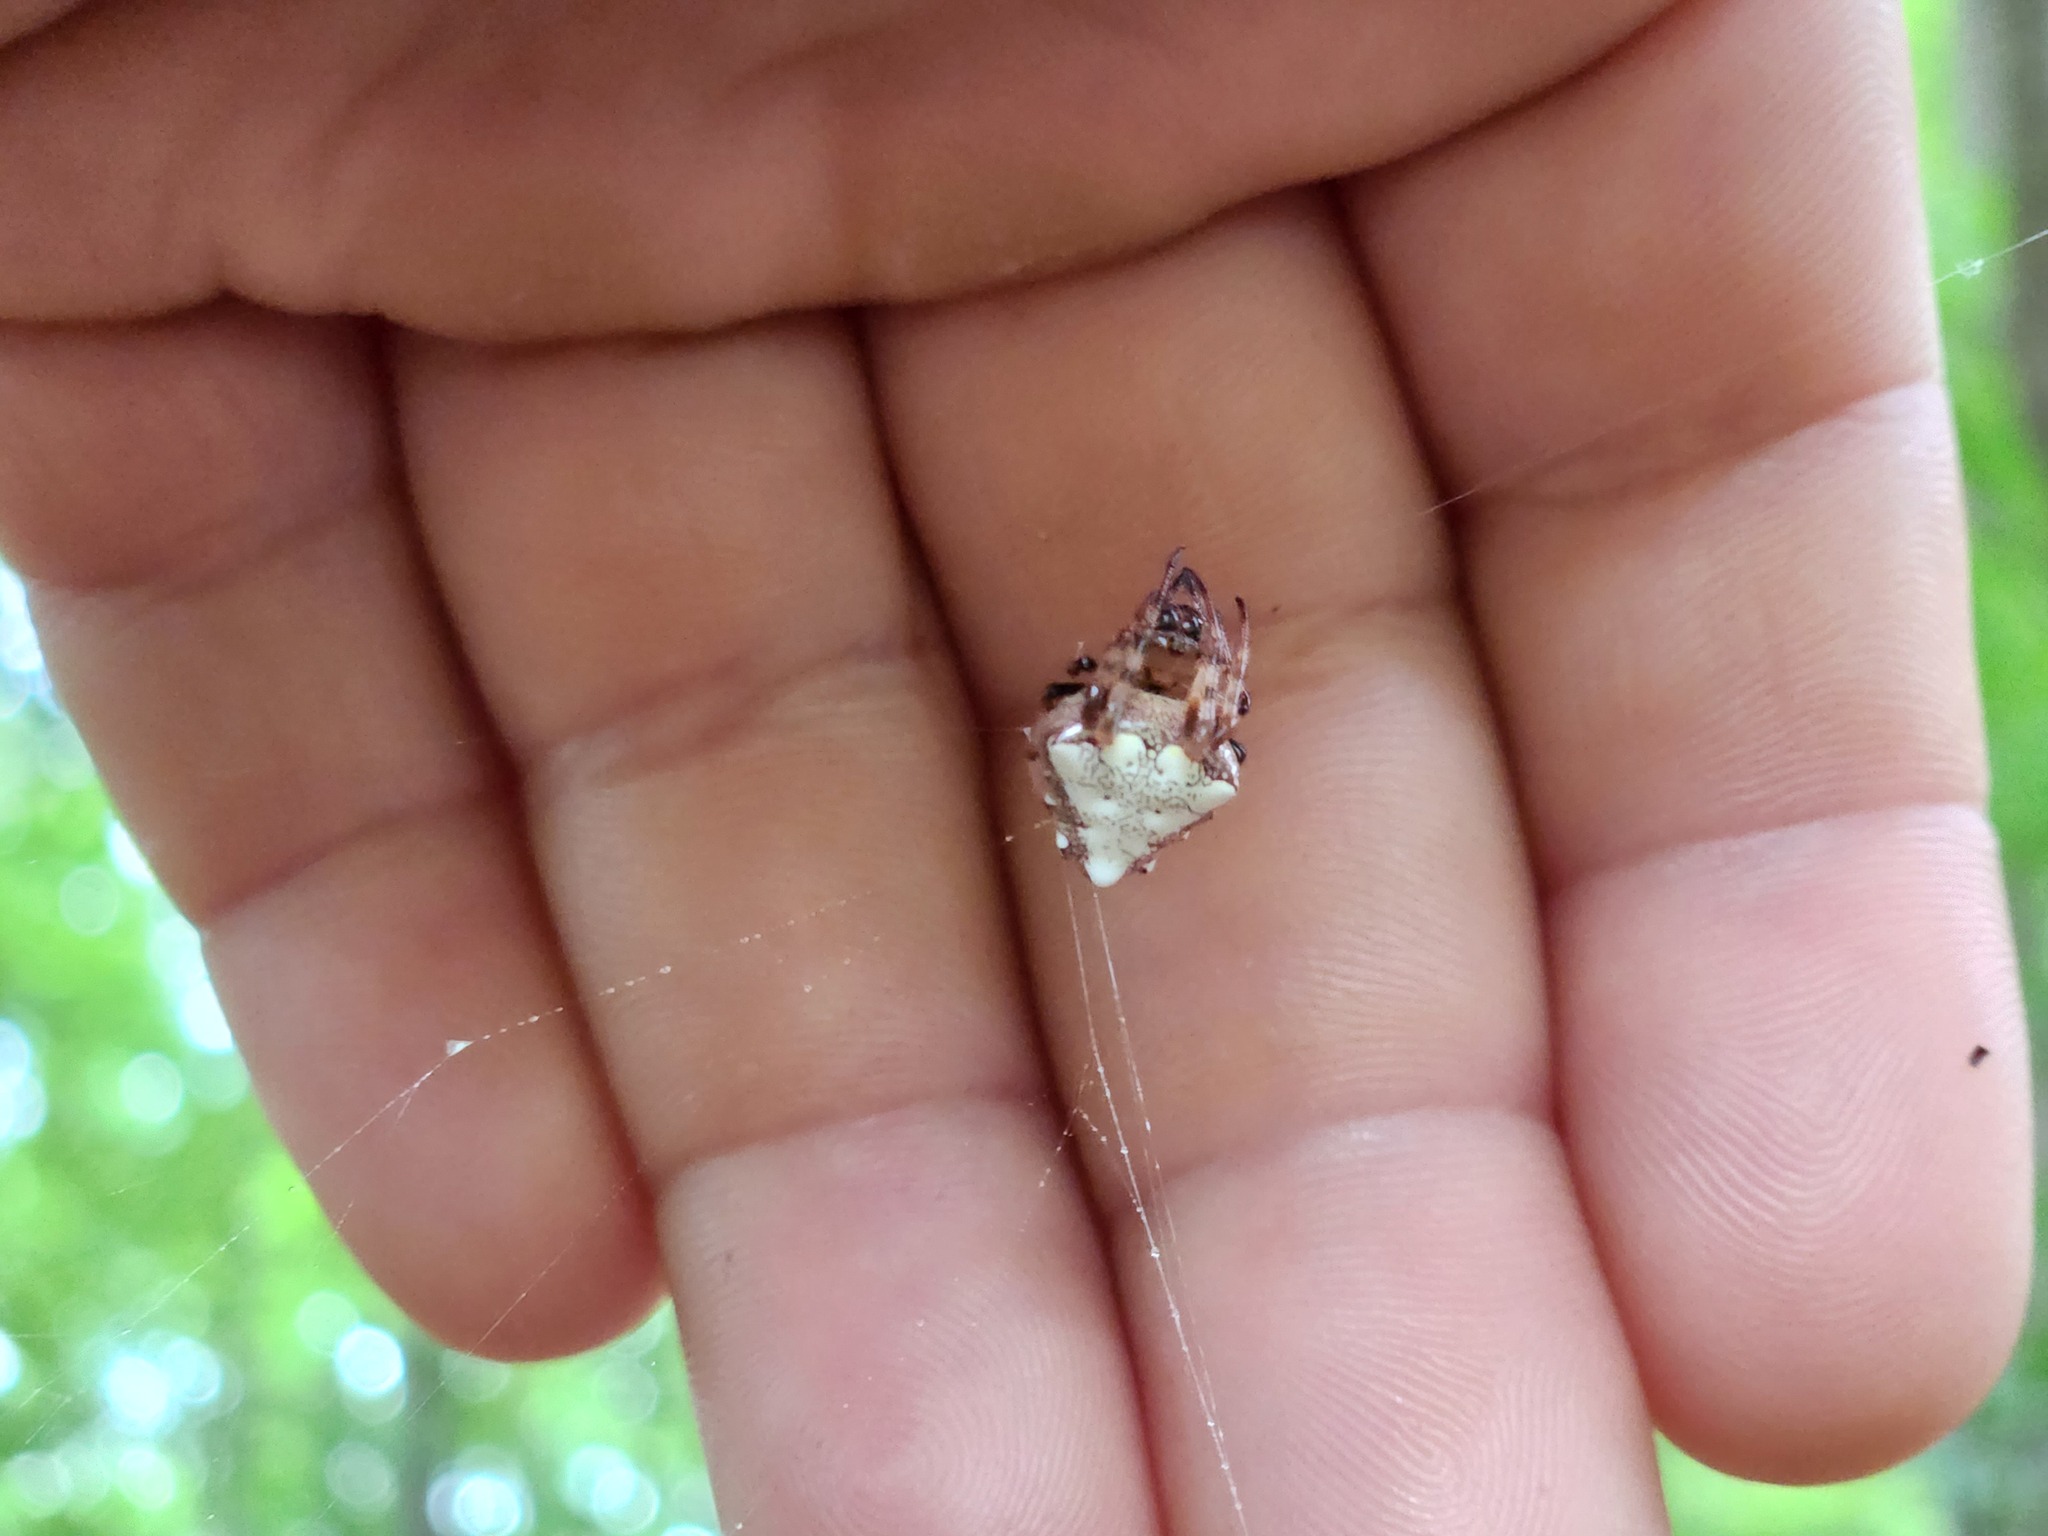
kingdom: Animalia
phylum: Arthropoda
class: Arachnida
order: Araneae
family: Araneidae
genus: Verrucosa
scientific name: Verrucosa arenata
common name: Orb weavers
